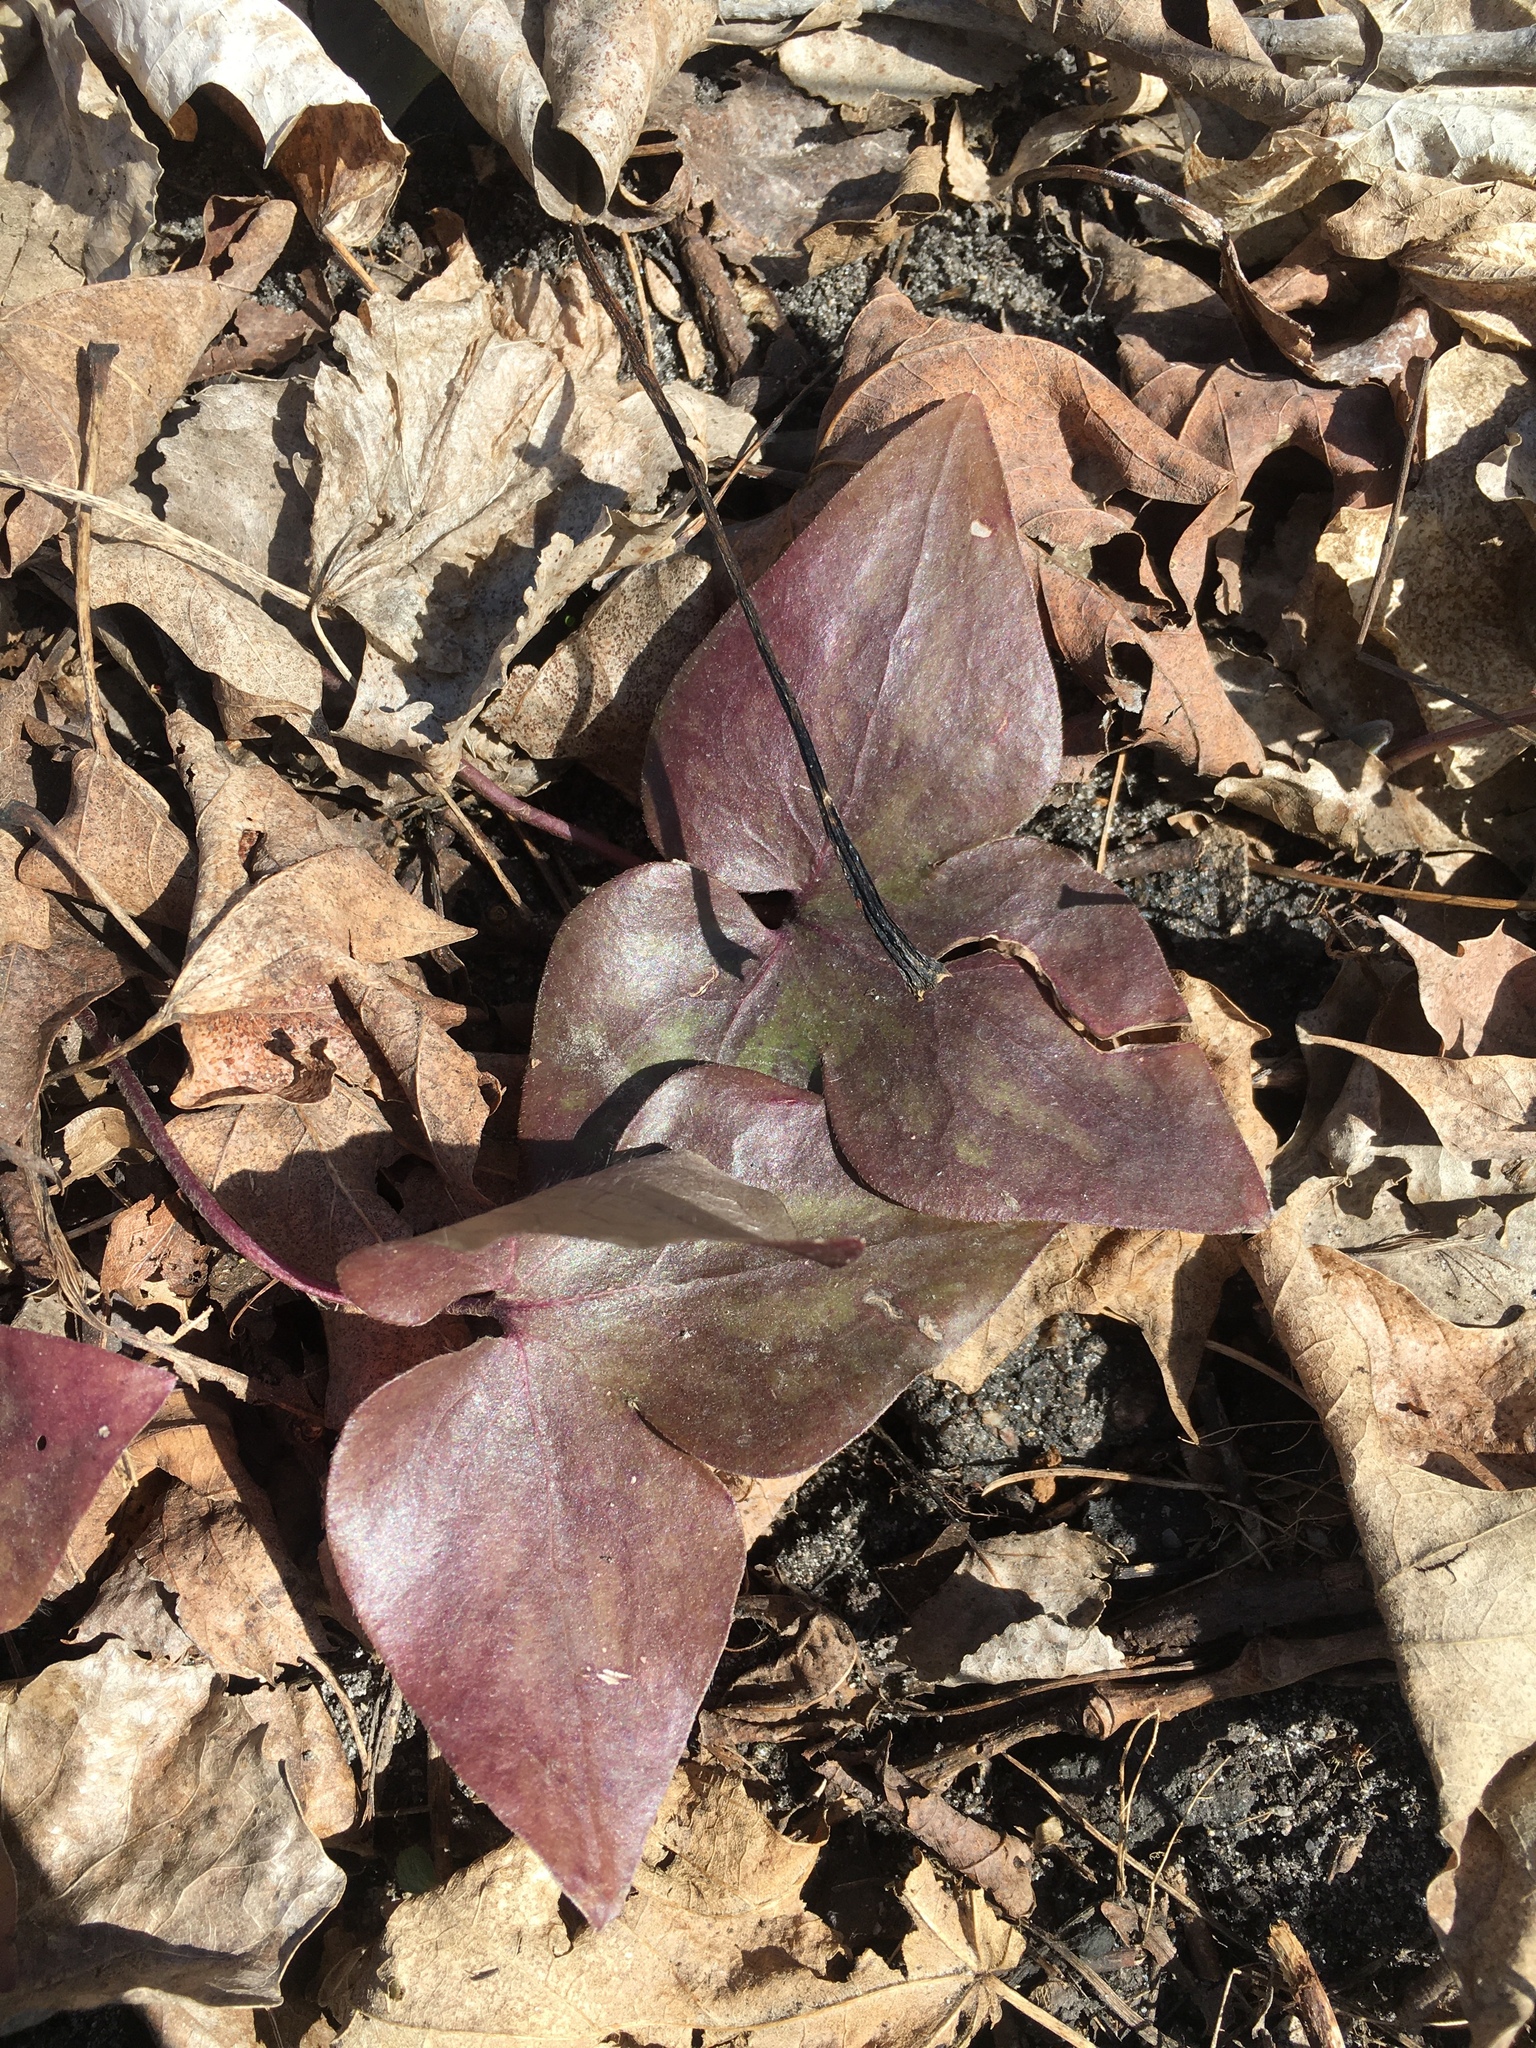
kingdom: Plantae
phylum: Tracheophyta
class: Magnoliopsida
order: Ranunculales
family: Ranunculaceae
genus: Hepatica
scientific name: Hepatica acutiloba
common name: Sharp-lobed hepatica
